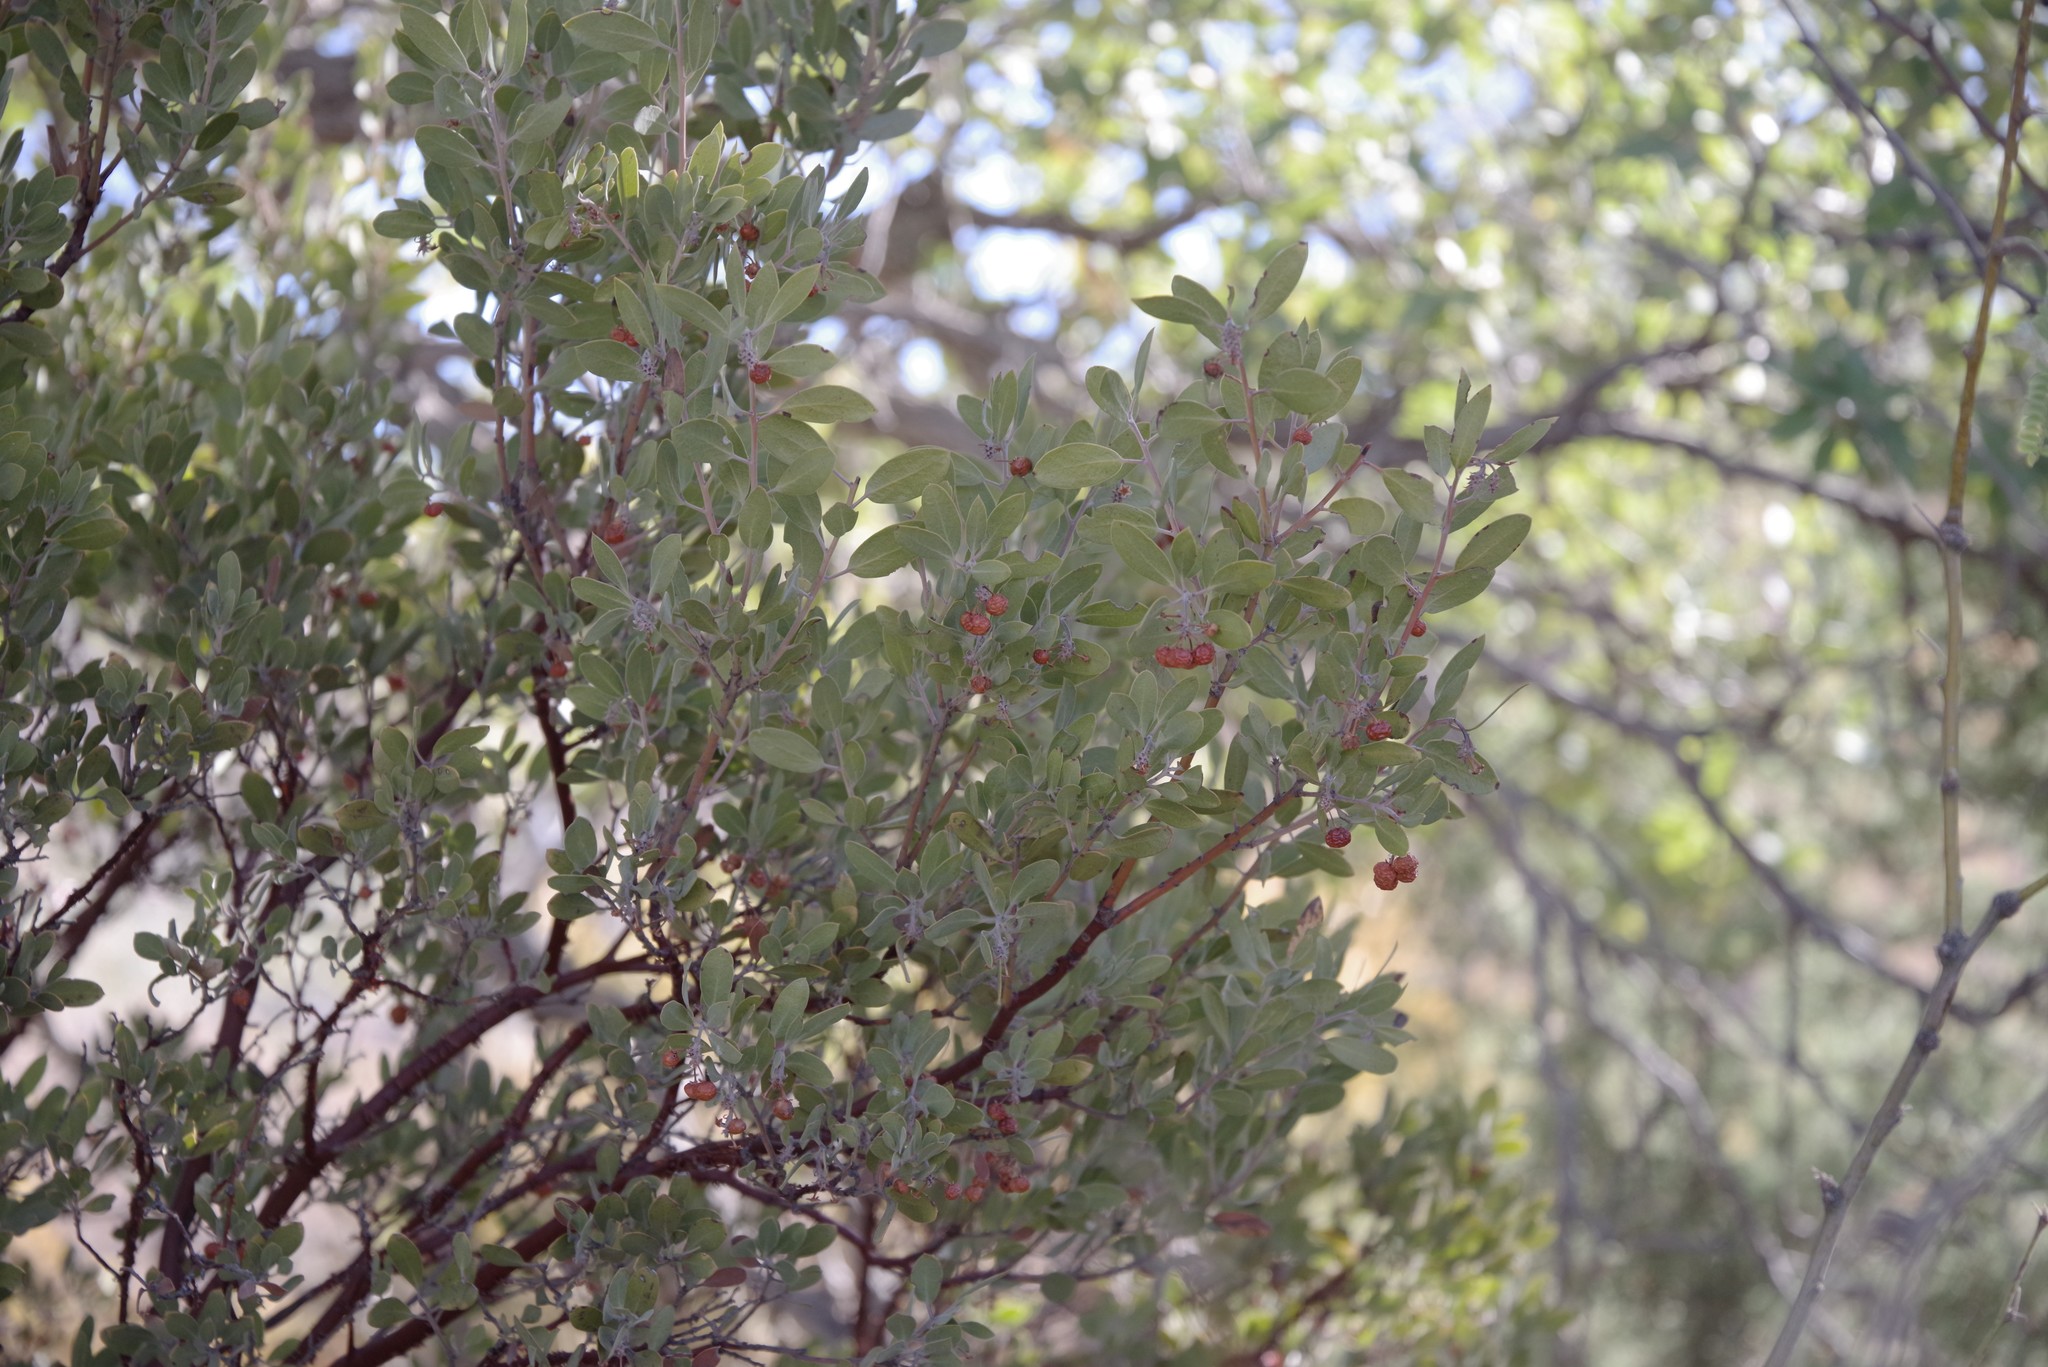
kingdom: Plantae
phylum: Tracheophyta
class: Magnoliopsida
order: Ericales
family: Ericaceae
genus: Arctostaphylos
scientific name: Arctostaphylos pungens
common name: Mexican manzanita
